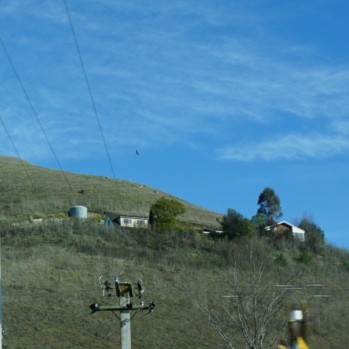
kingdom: Animalia
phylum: Chordata
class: Aves
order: Accipitriformes
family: Accipitridae
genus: Circus
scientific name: Circus approximans
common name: Swamp harrier
